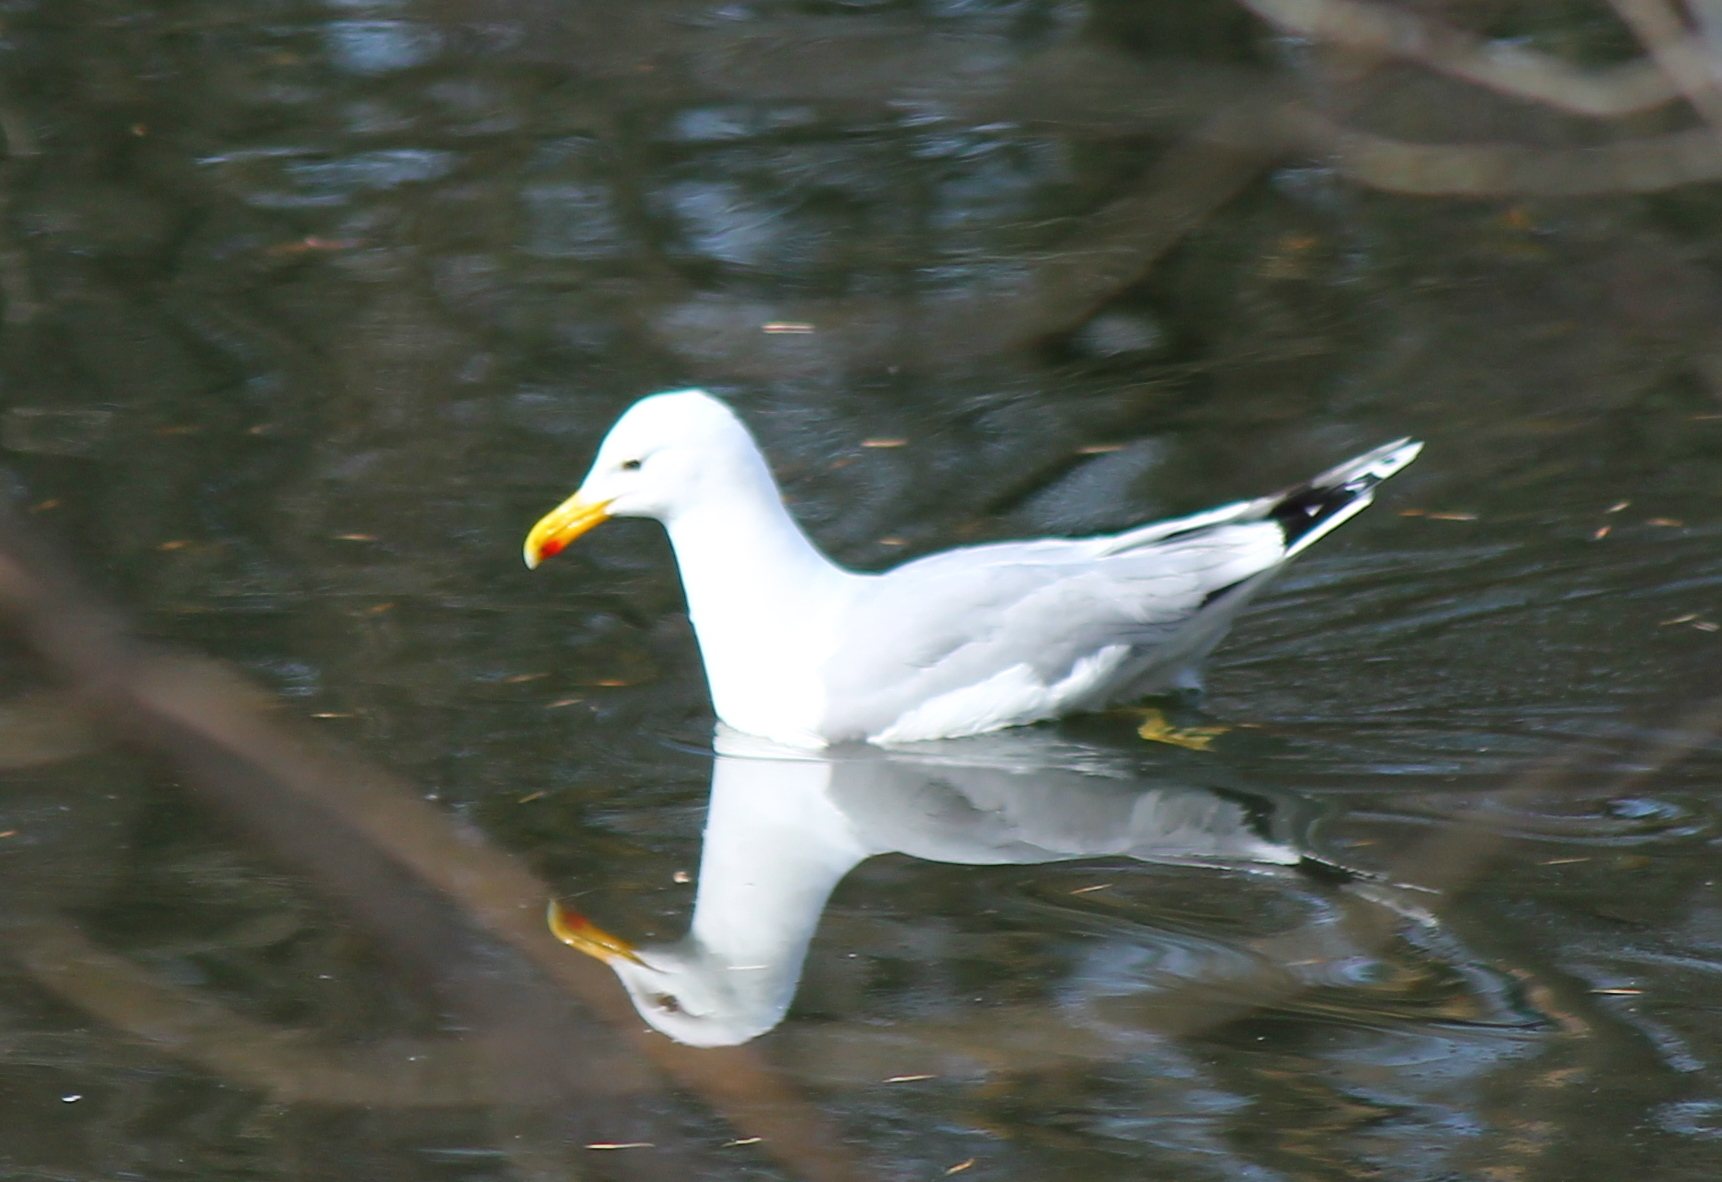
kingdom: Animalia
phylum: Chordata
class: Aves
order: Charadriiformes
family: Laridae
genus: Larus
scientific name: Larus cachinnans
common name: Caspian gull
